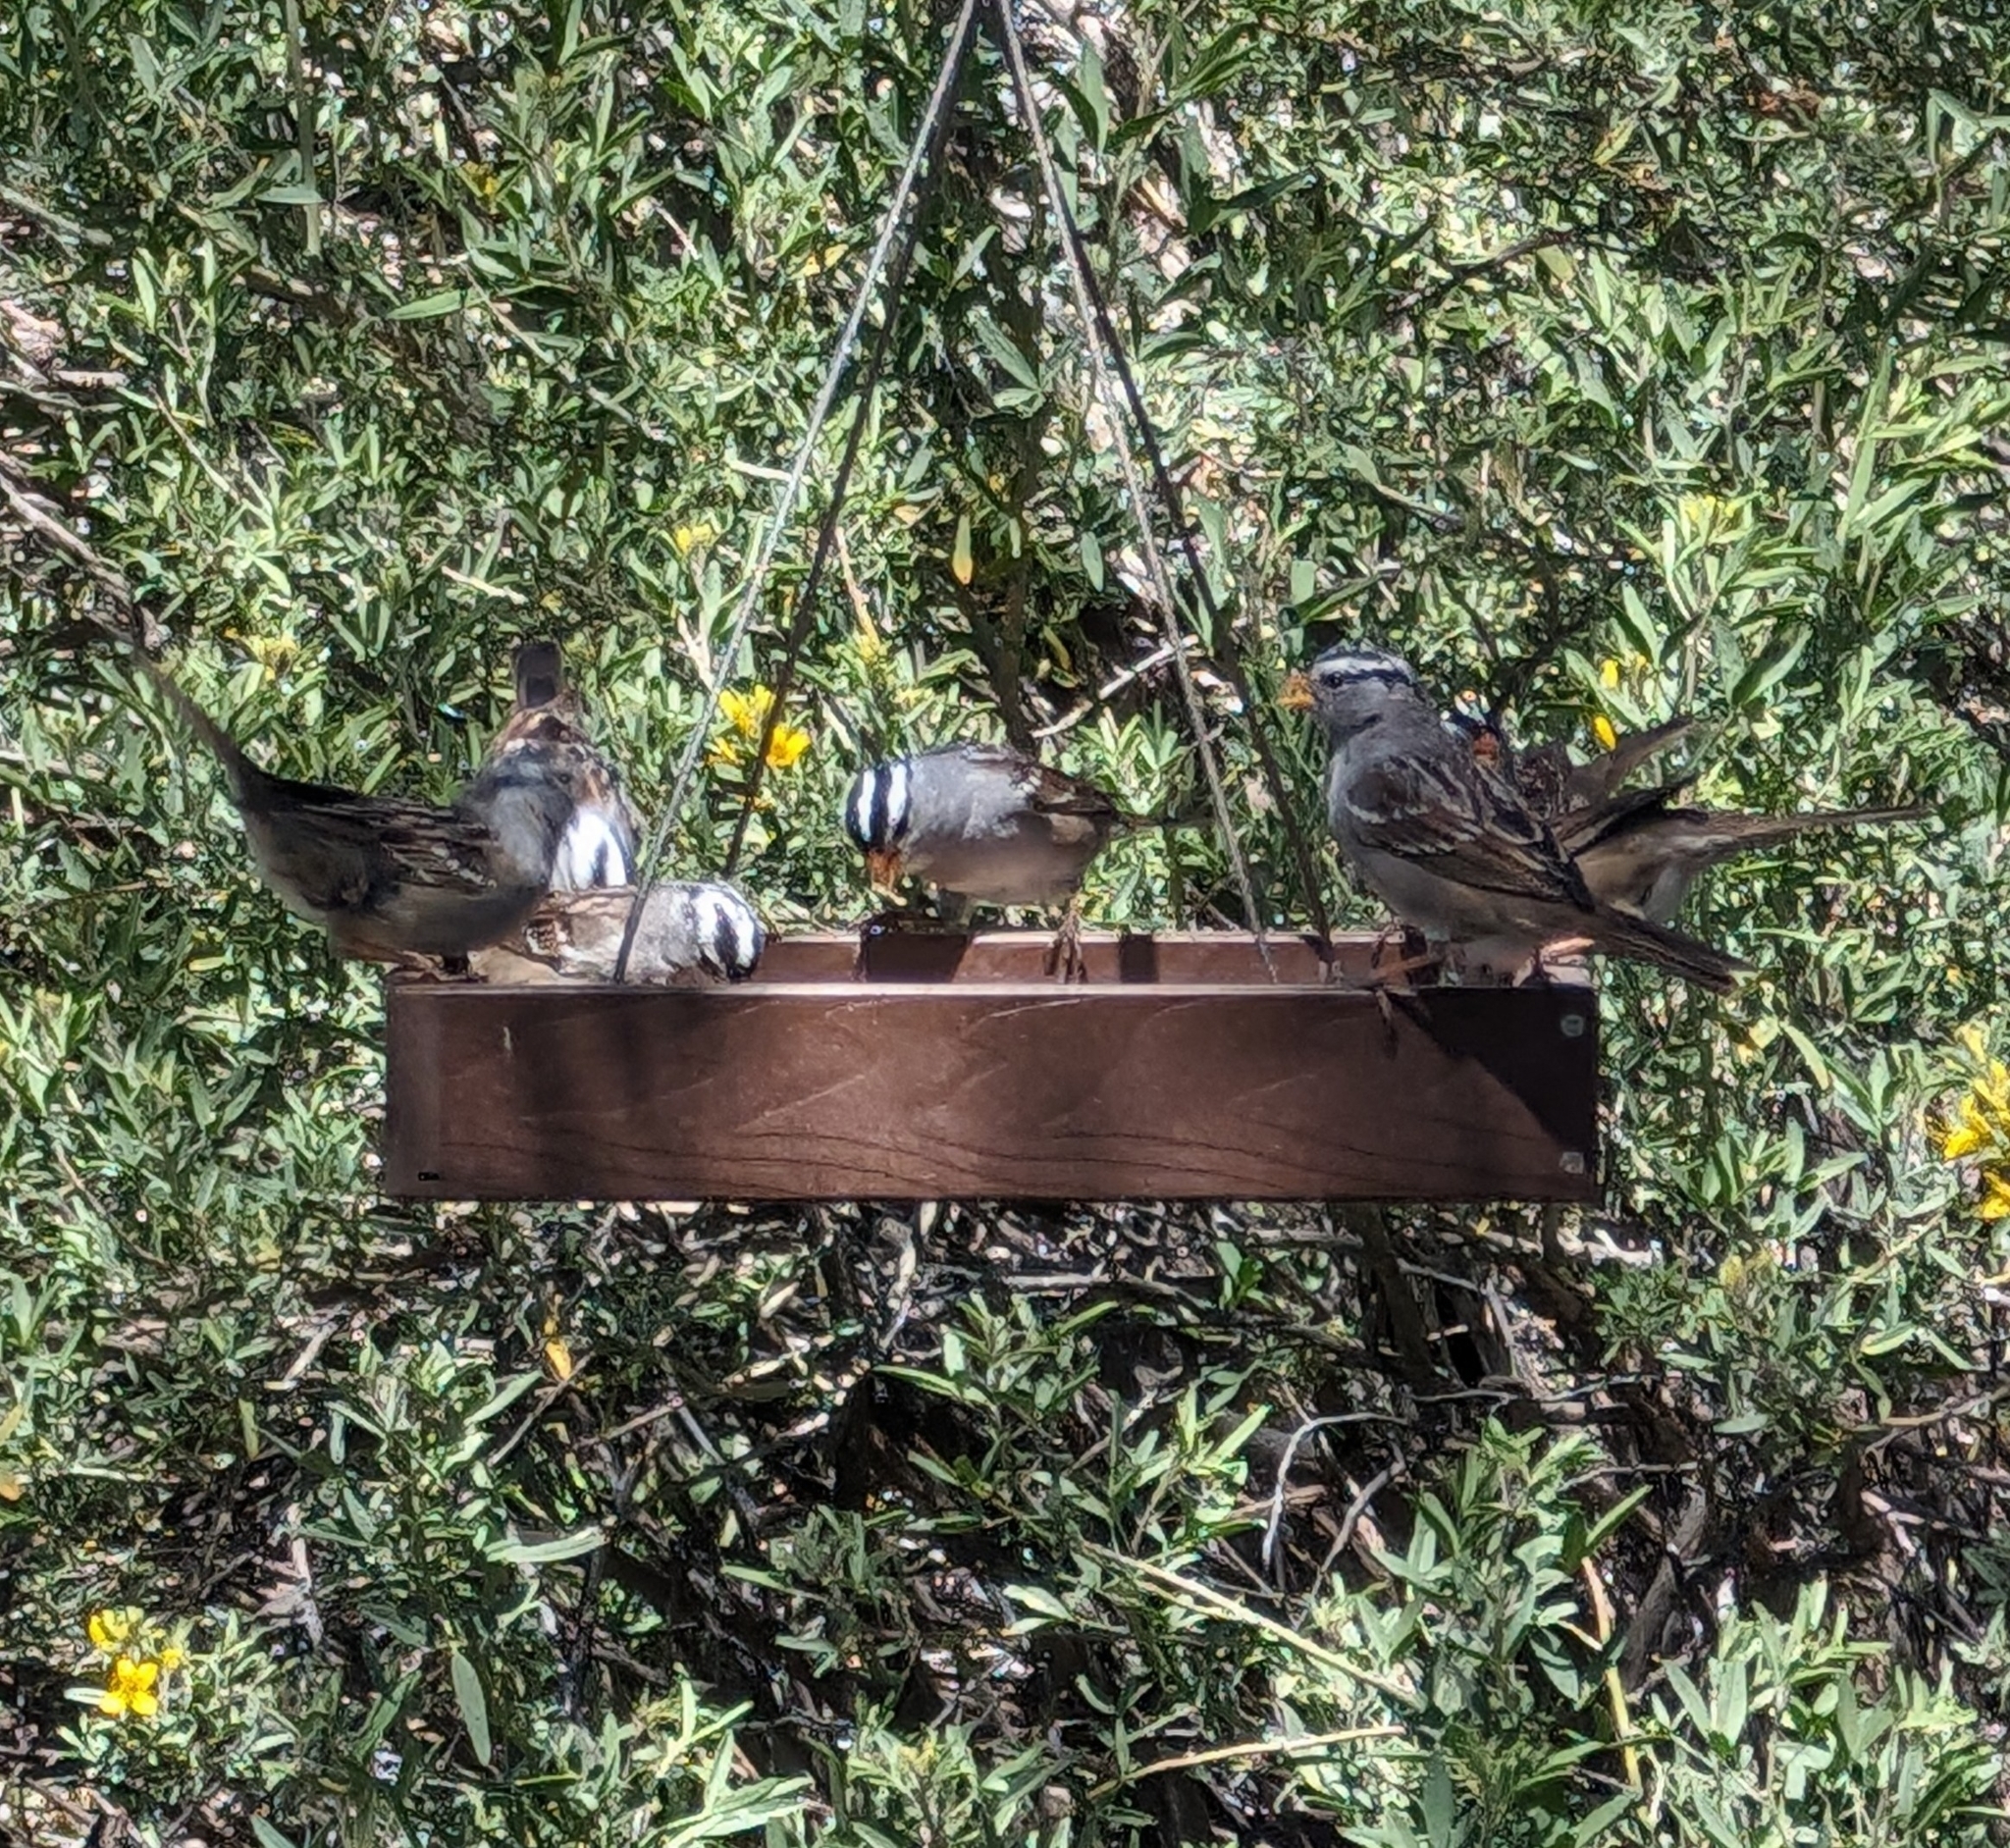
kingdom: Animalia
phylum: Chordata
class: Aves
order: Passeriformes
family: Passerellidae
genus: Zonotrichia
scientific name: Zonotrichia leucophrys
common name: White-crowned sparrow
